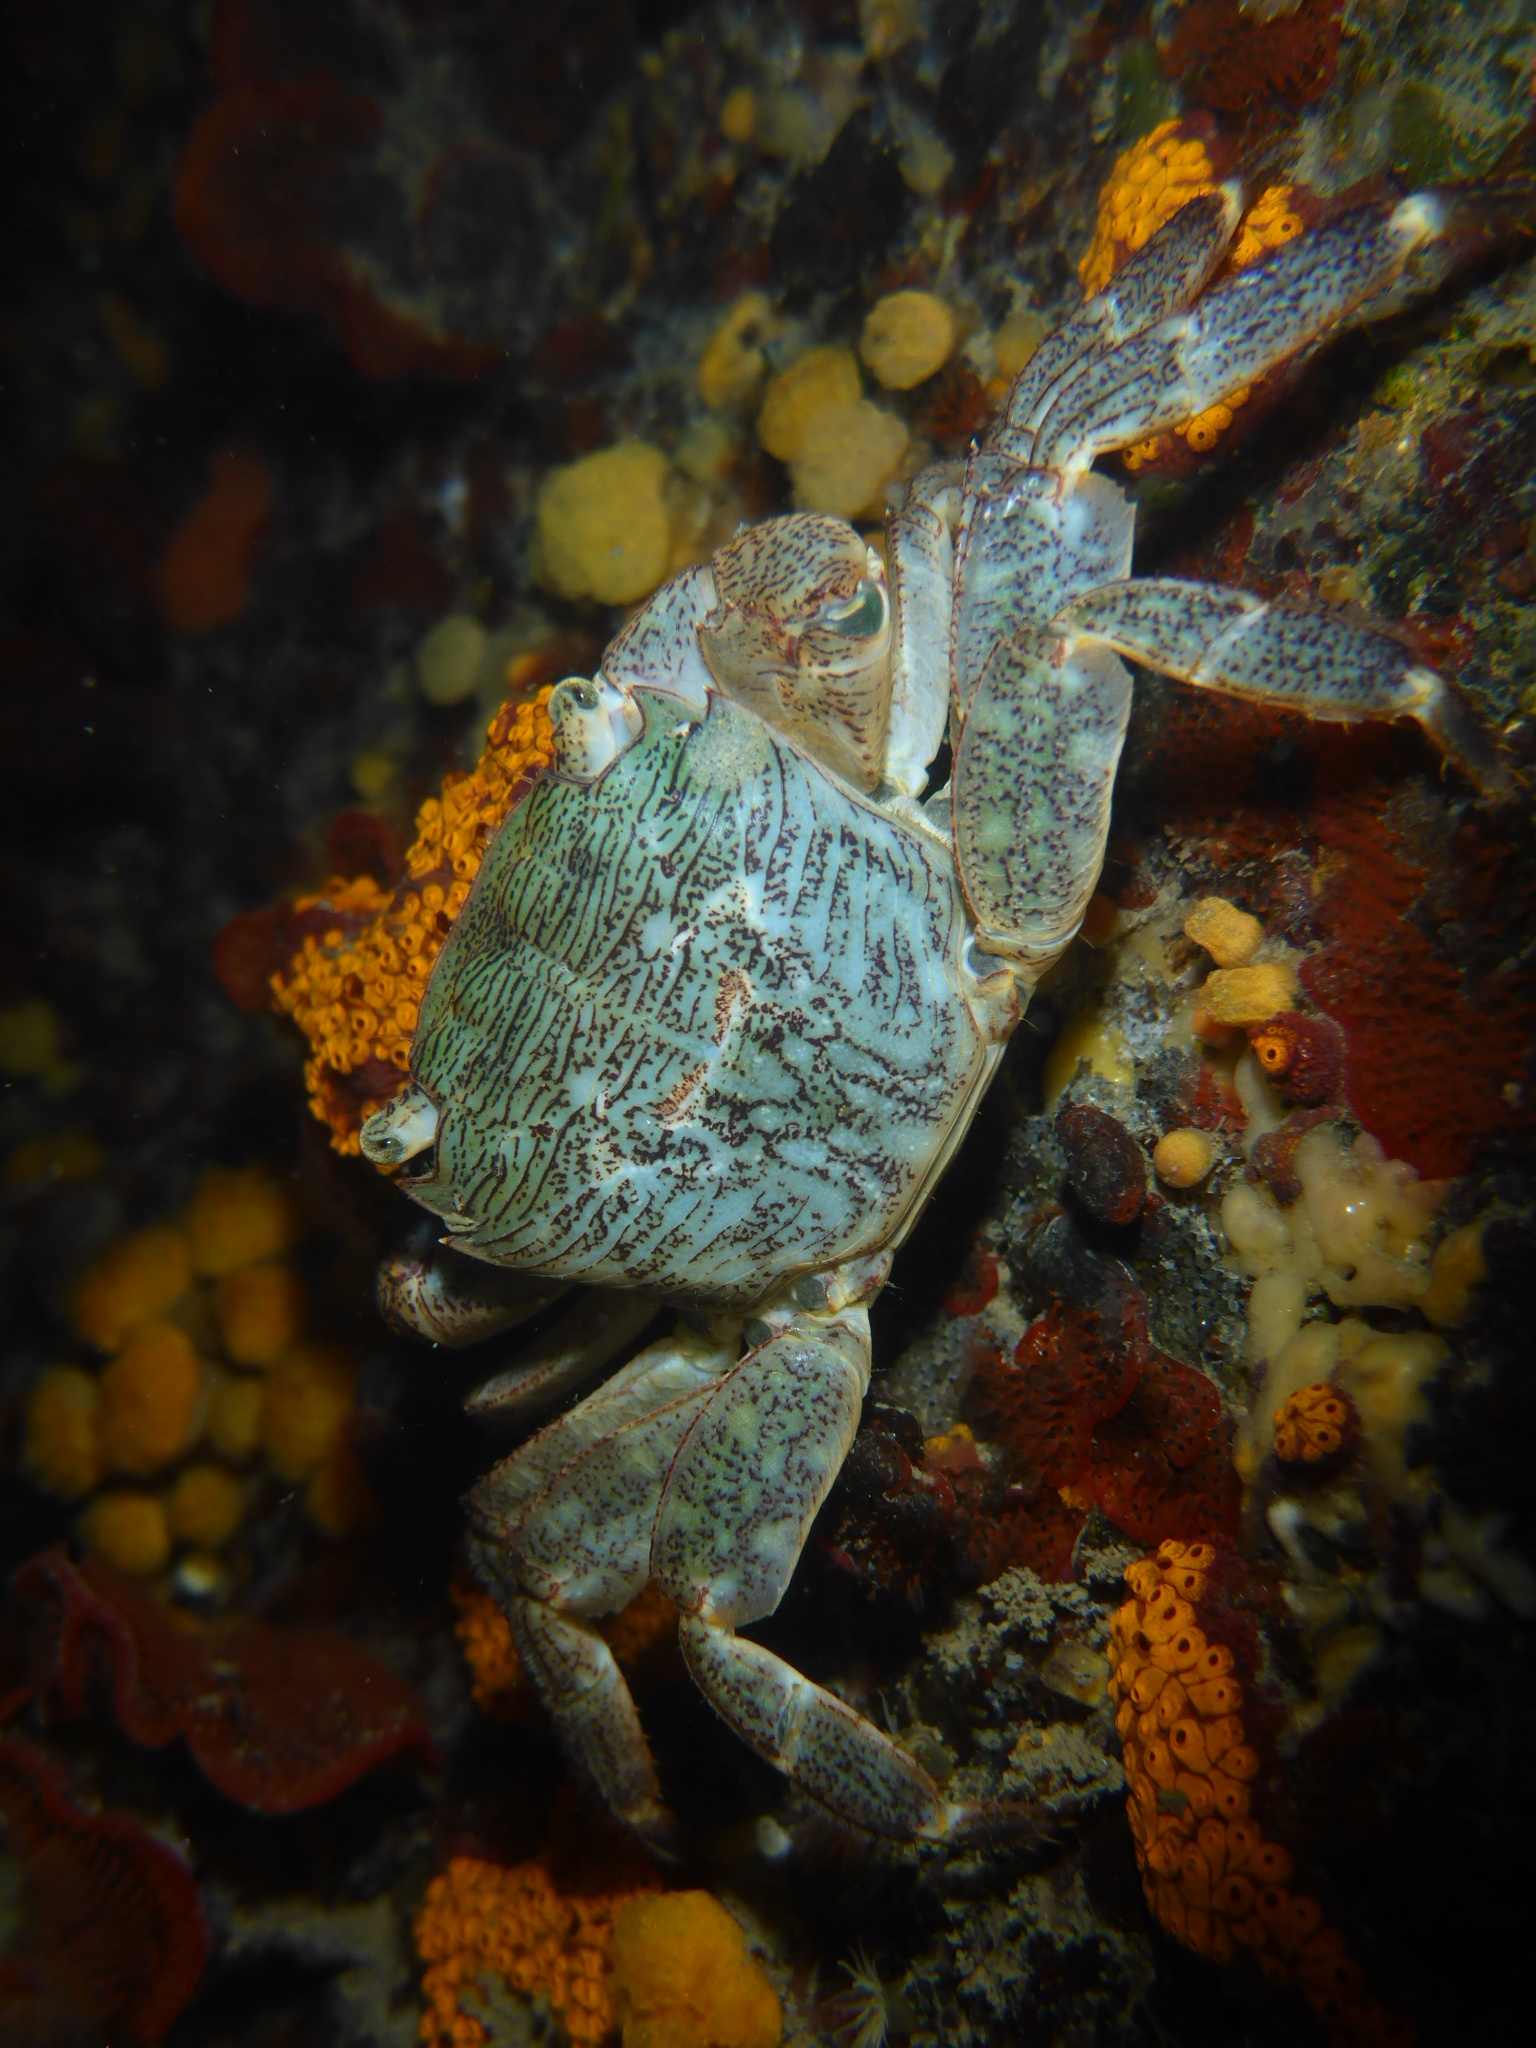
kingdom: Animalia
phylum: Arthropoda
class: Malacostraca
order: Decapoda
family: Grapsidae
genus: Pachygrapsus
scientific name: Pachygrapsus crassipes
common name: Striped shore crab
